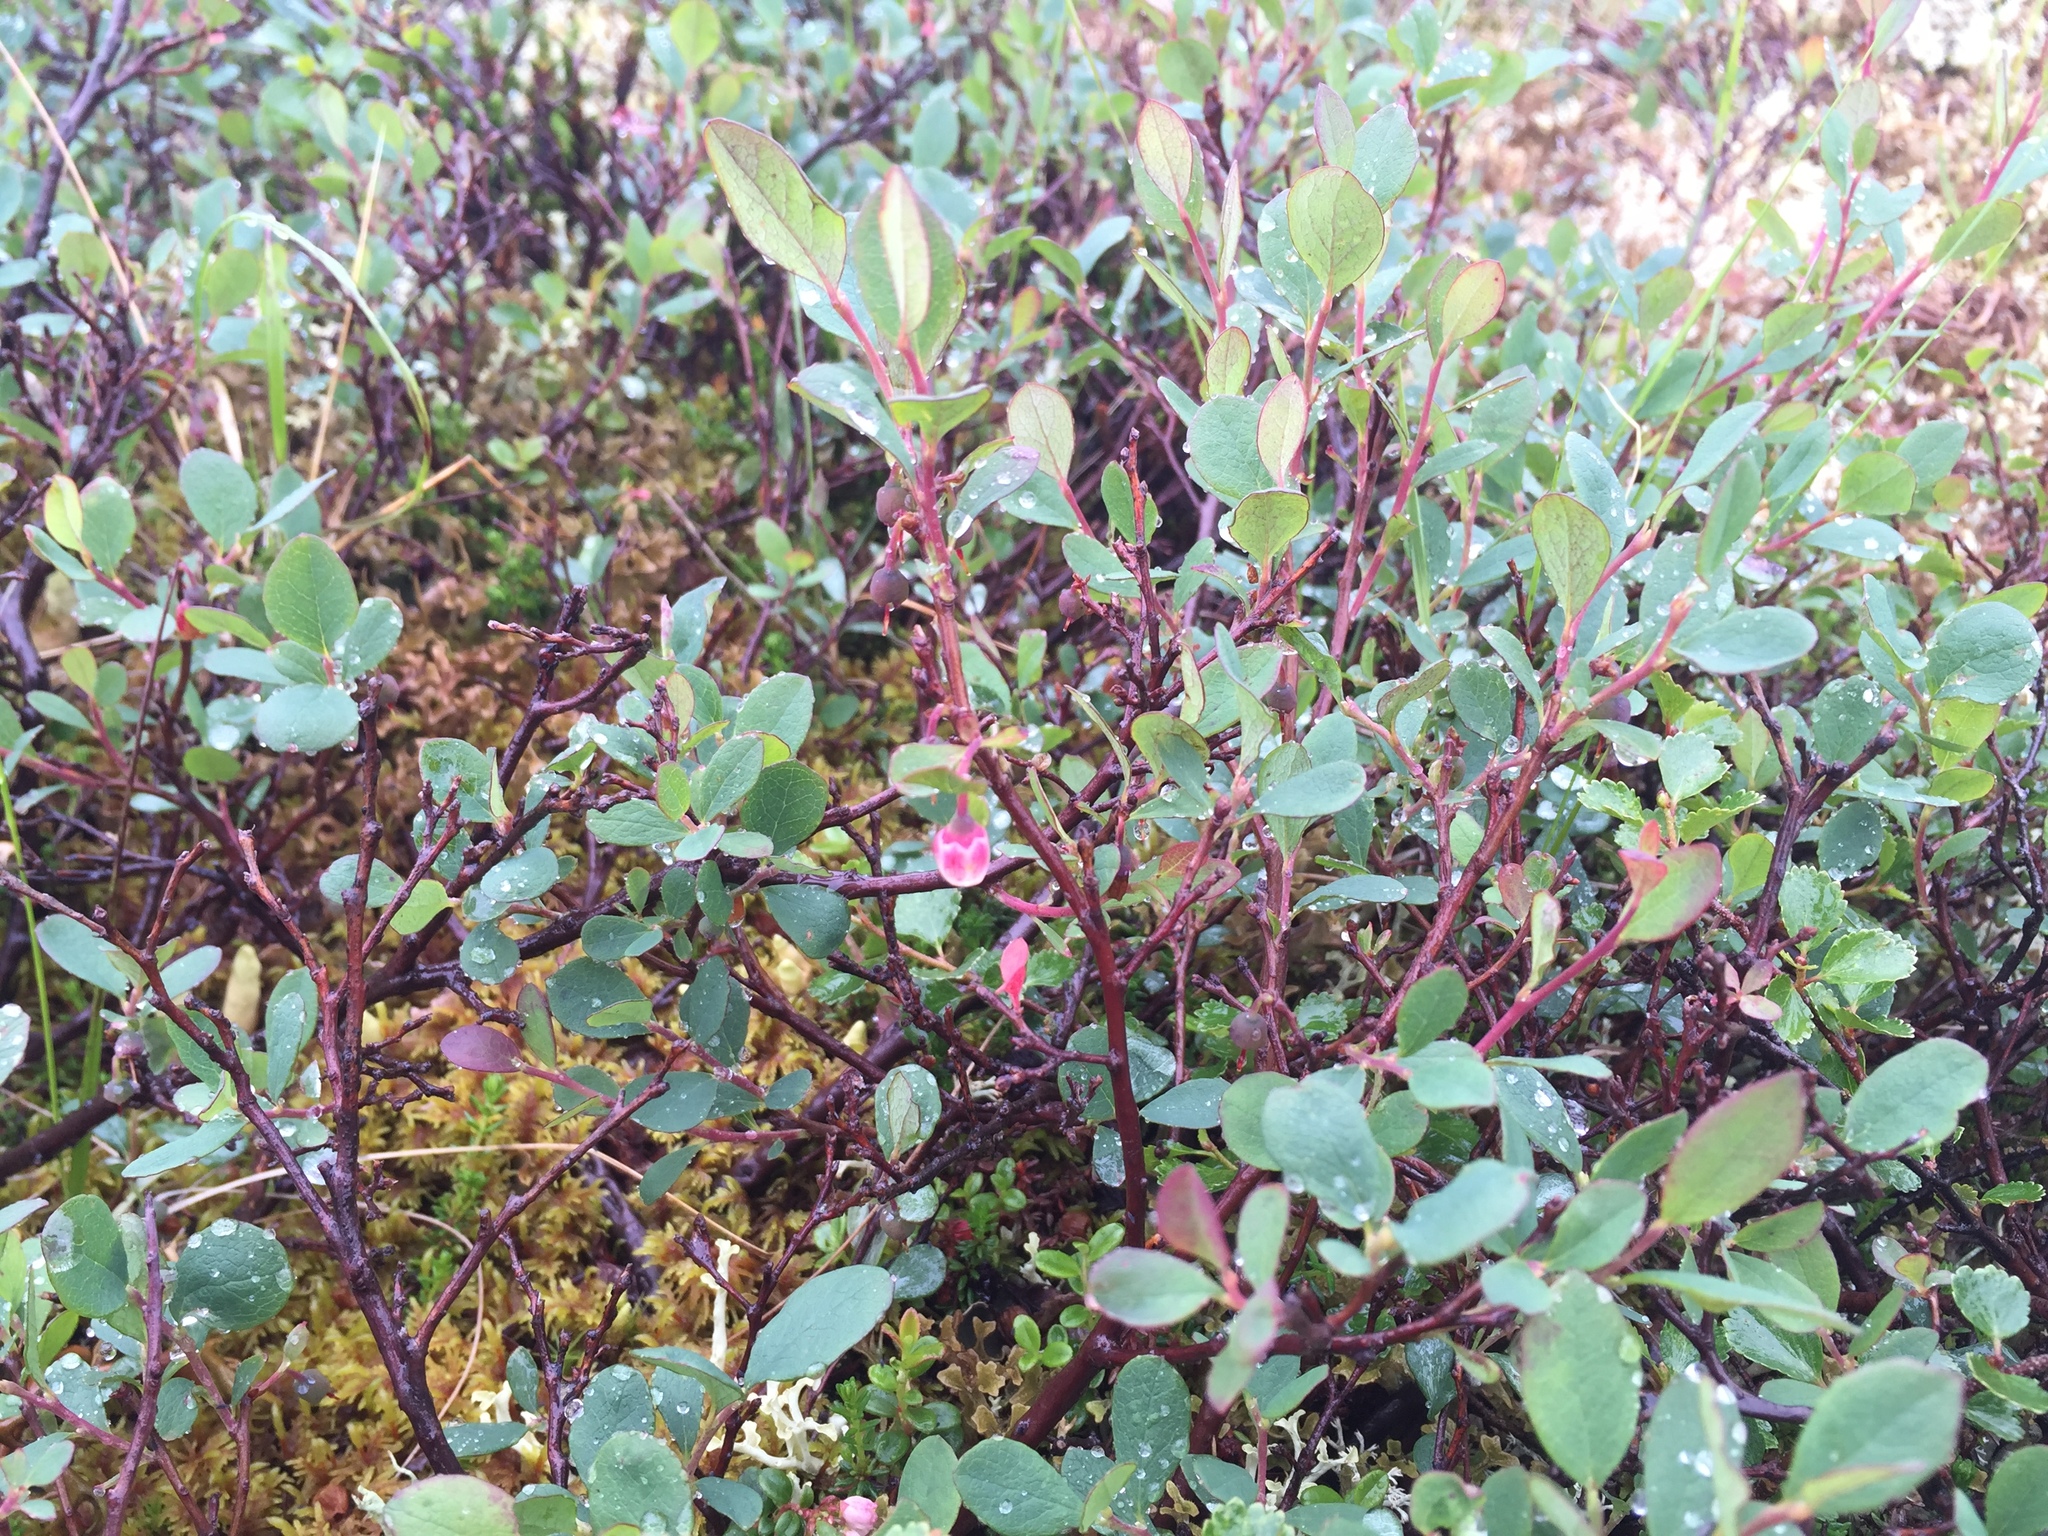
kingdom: Plantae
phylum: Tracheophyta
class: Magnoliopsida
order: Ericales
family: Ericaceae
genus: Vaccinium
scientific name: Vaccinium uliginosum
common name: Bog bilberry
